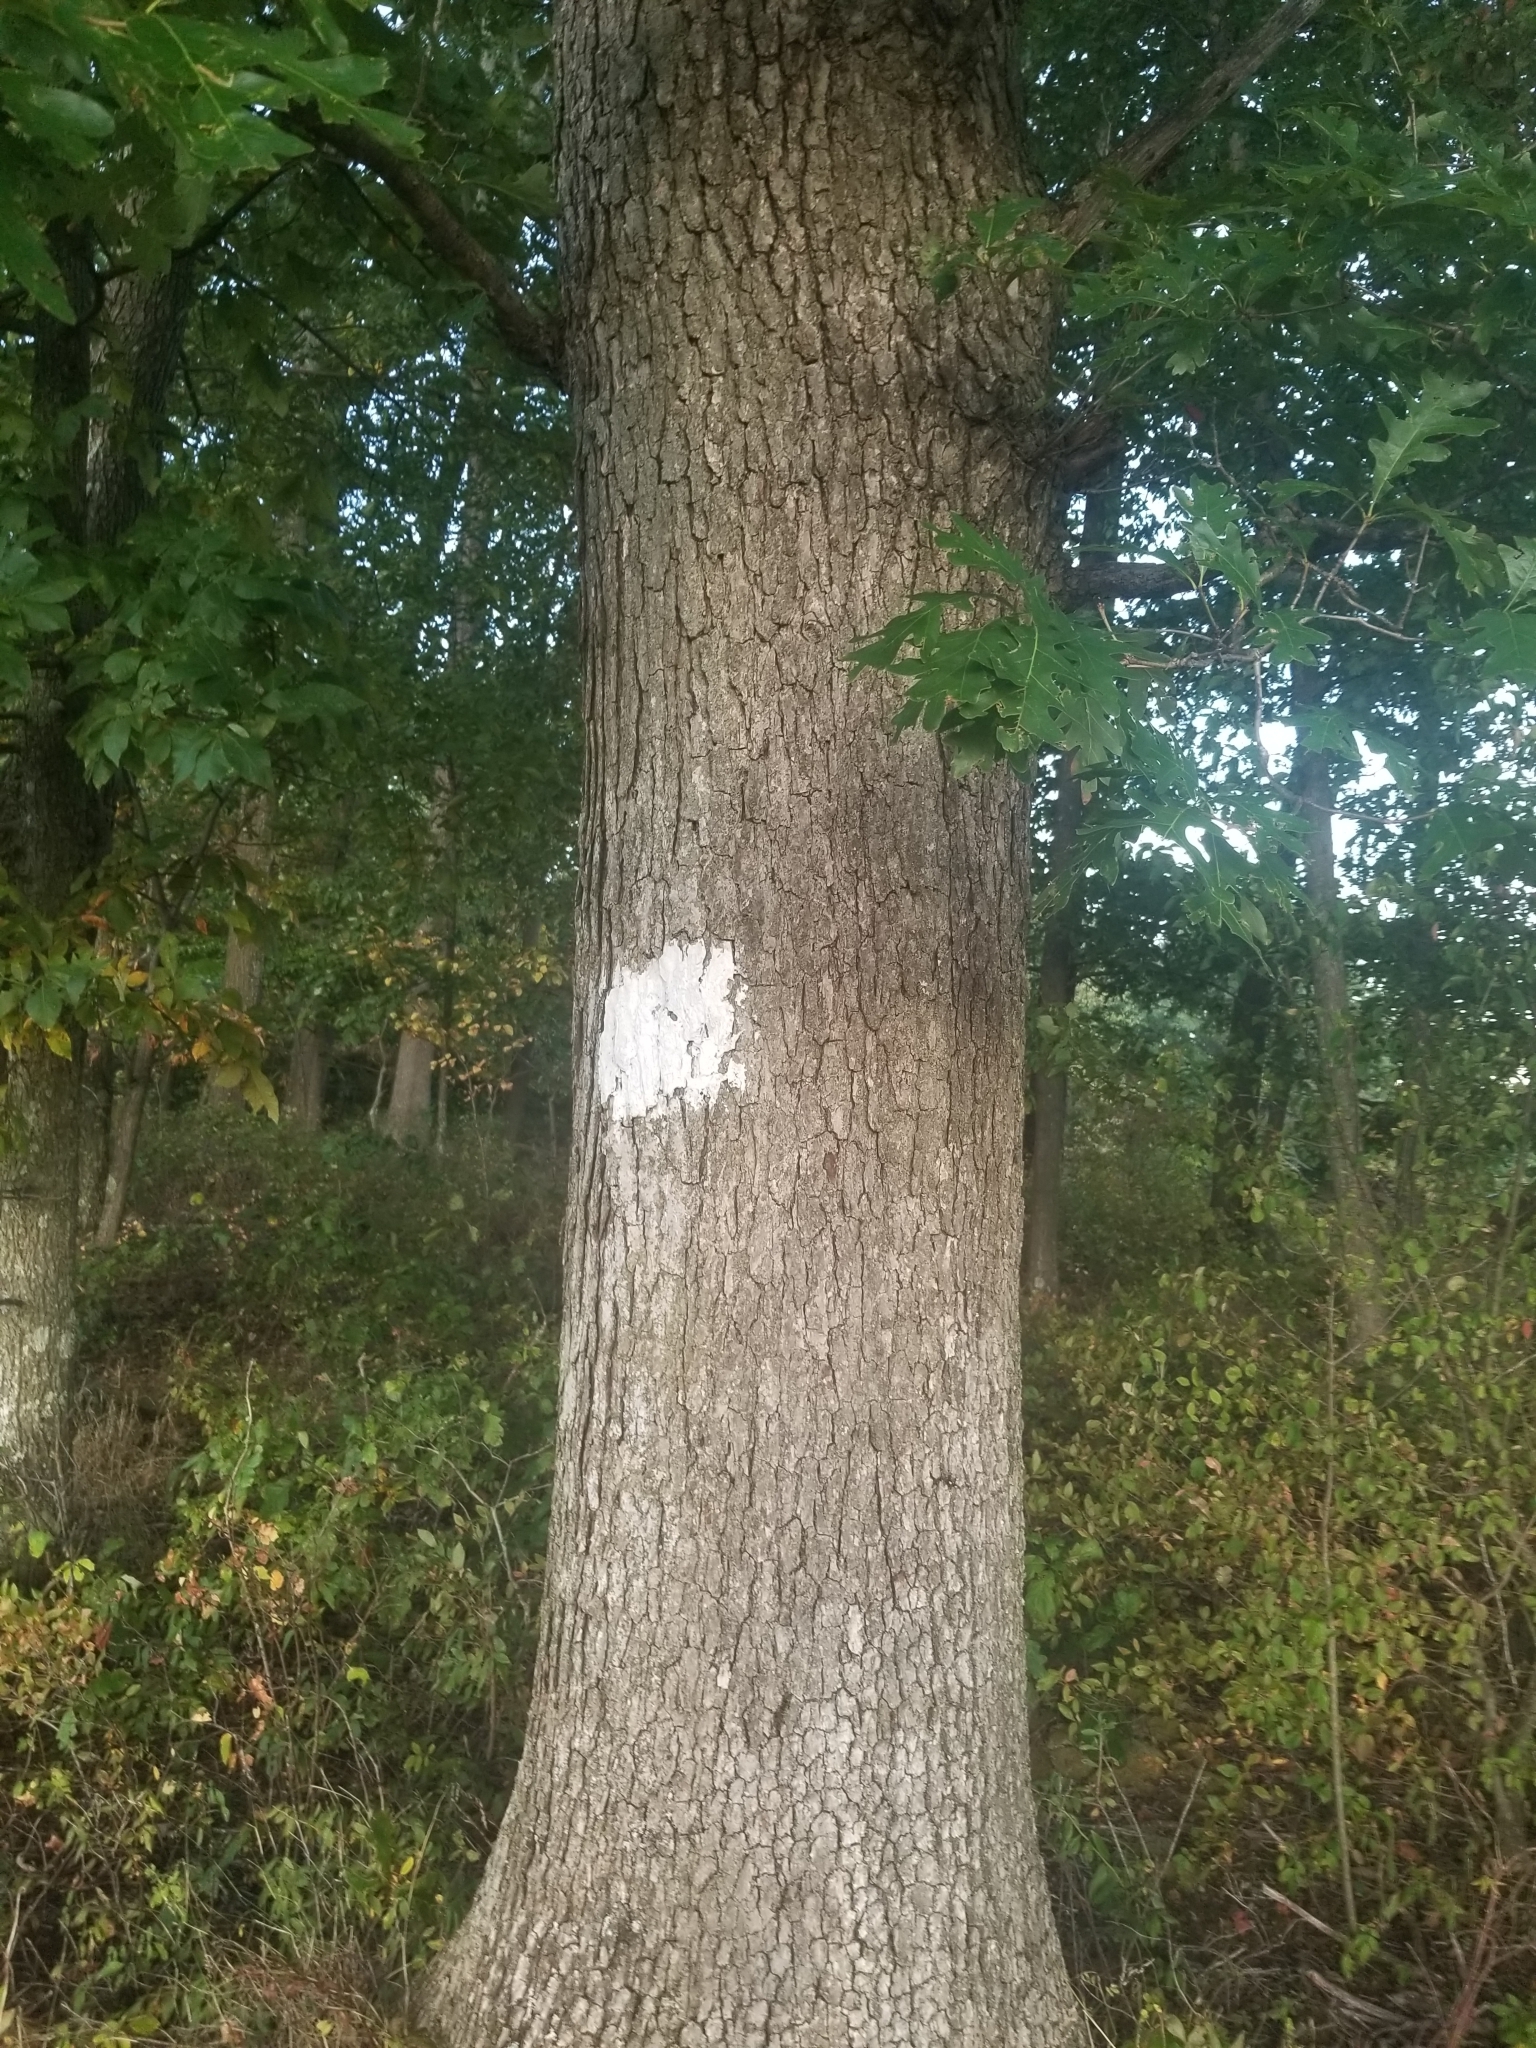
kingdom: Plantae
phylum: Tracheophyta
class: Magnoliopsida
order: Fagales
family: Fagaceae
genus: Quercus
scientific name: Quercus alba
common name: White oak
